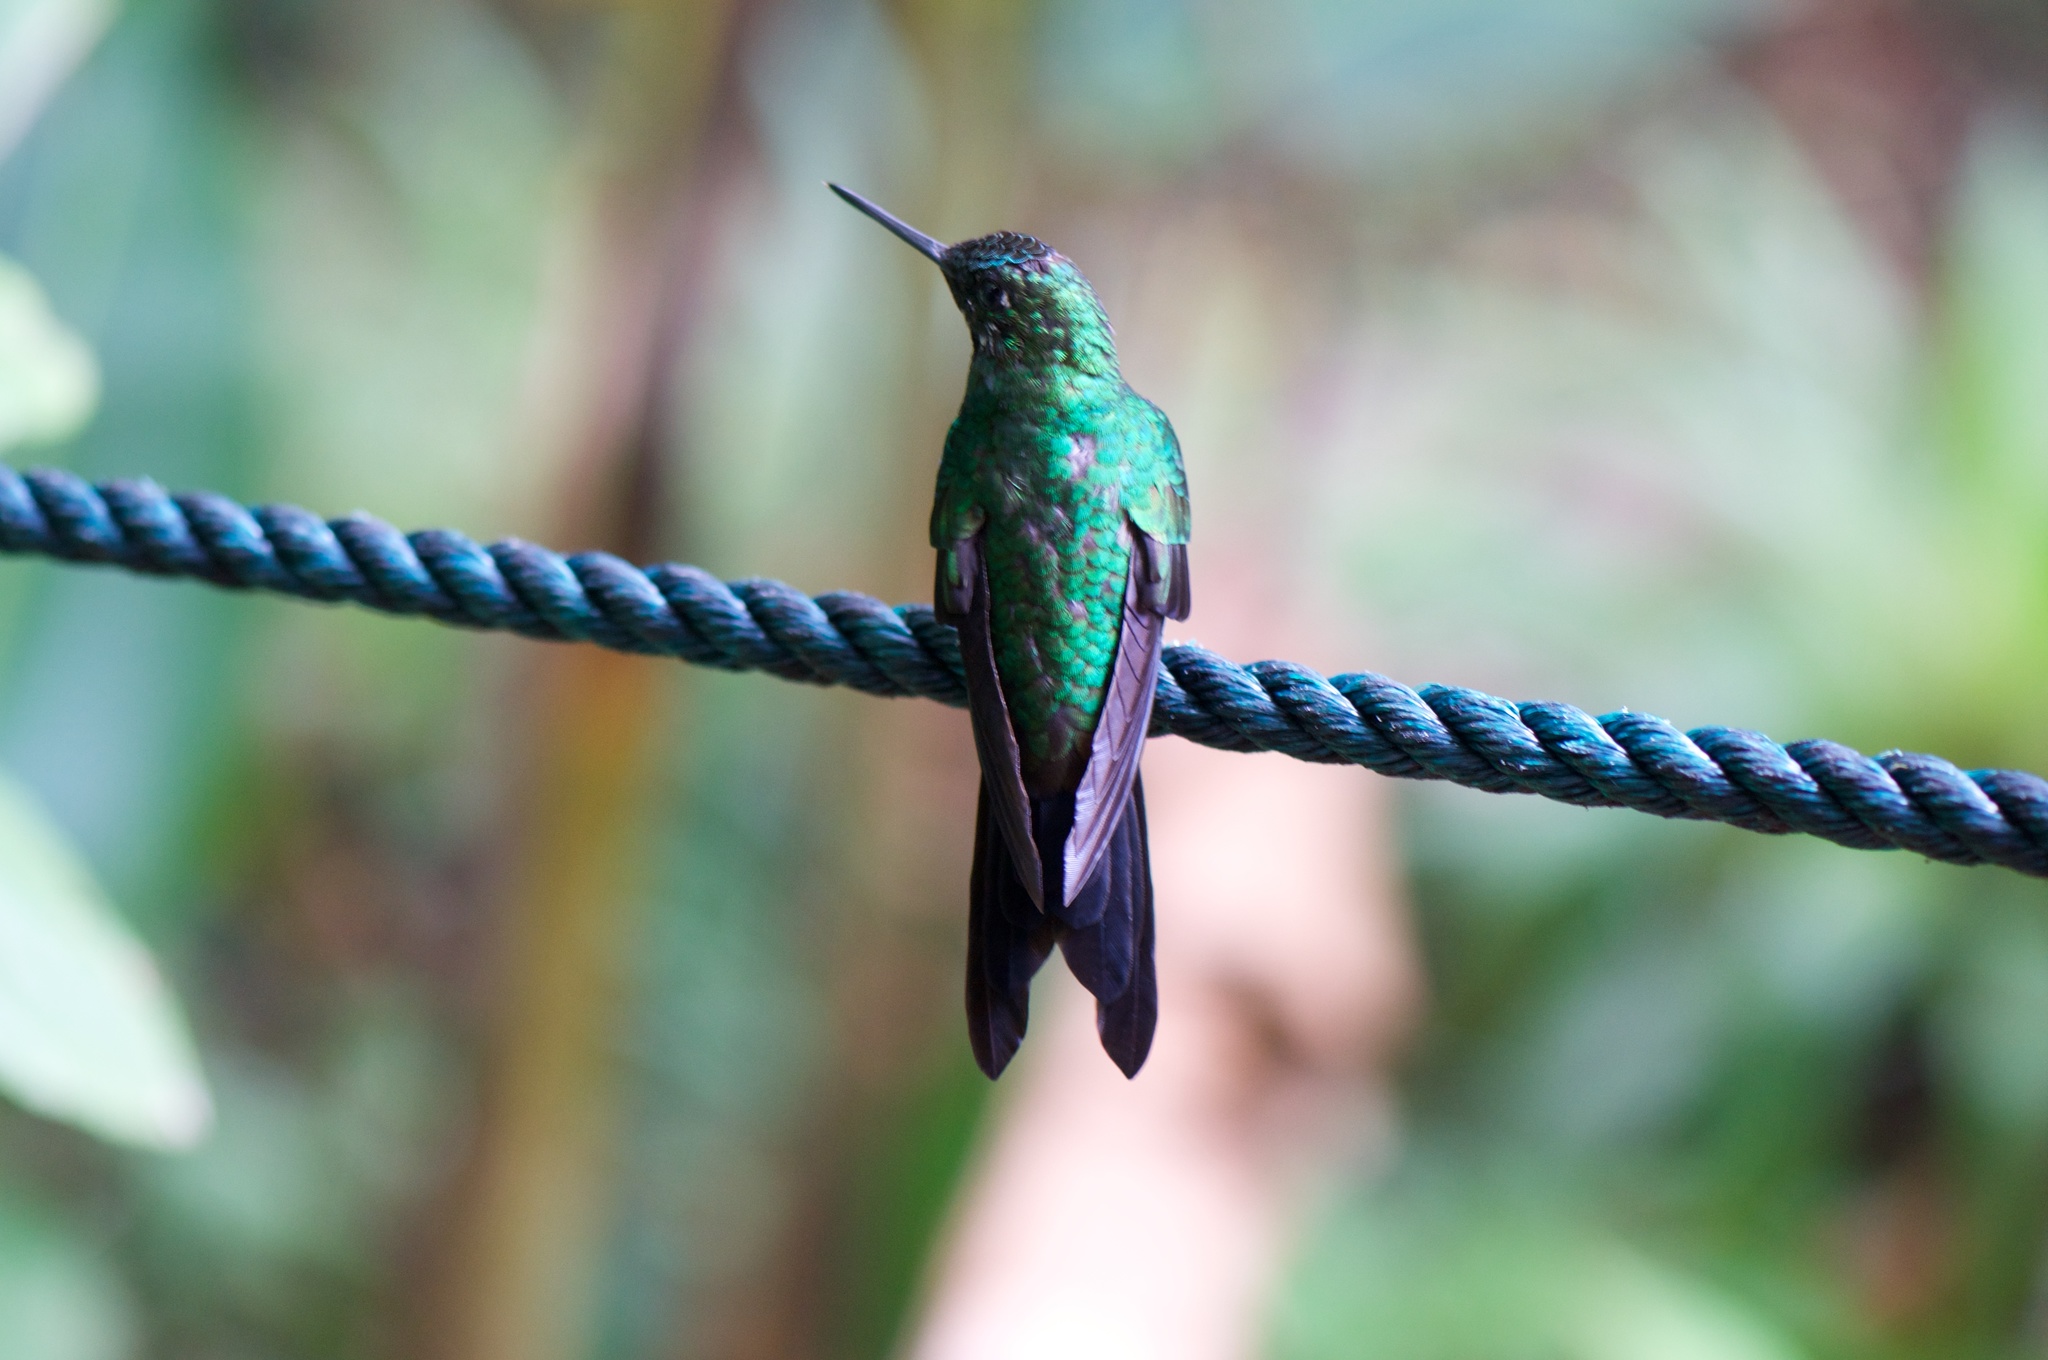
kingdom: Animalia
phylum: Chordata
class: Aves
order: Apodiformes
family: Trochilidae
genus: Heliodoxa
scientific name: Heliodoxa jacula
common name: Green-crowned brilliant
